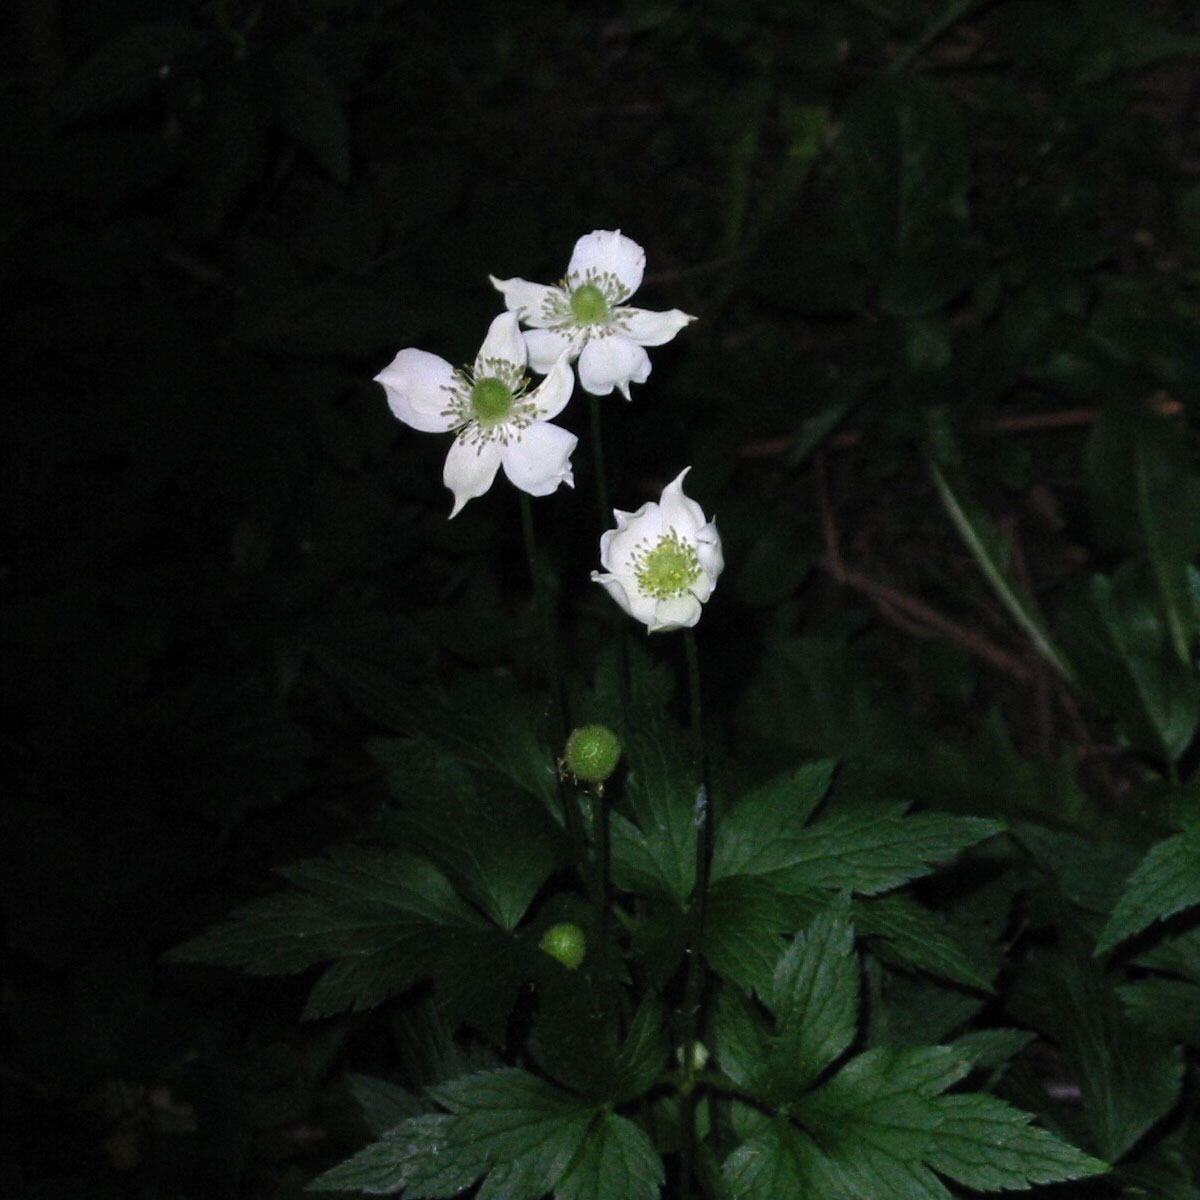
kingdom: Plantae
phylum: Tracheophyta
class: Magnoliopsida
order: Ranunculales
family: Ranunculaceae
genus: Anemone
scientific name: Anemone virginiana
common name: Tall anemone
